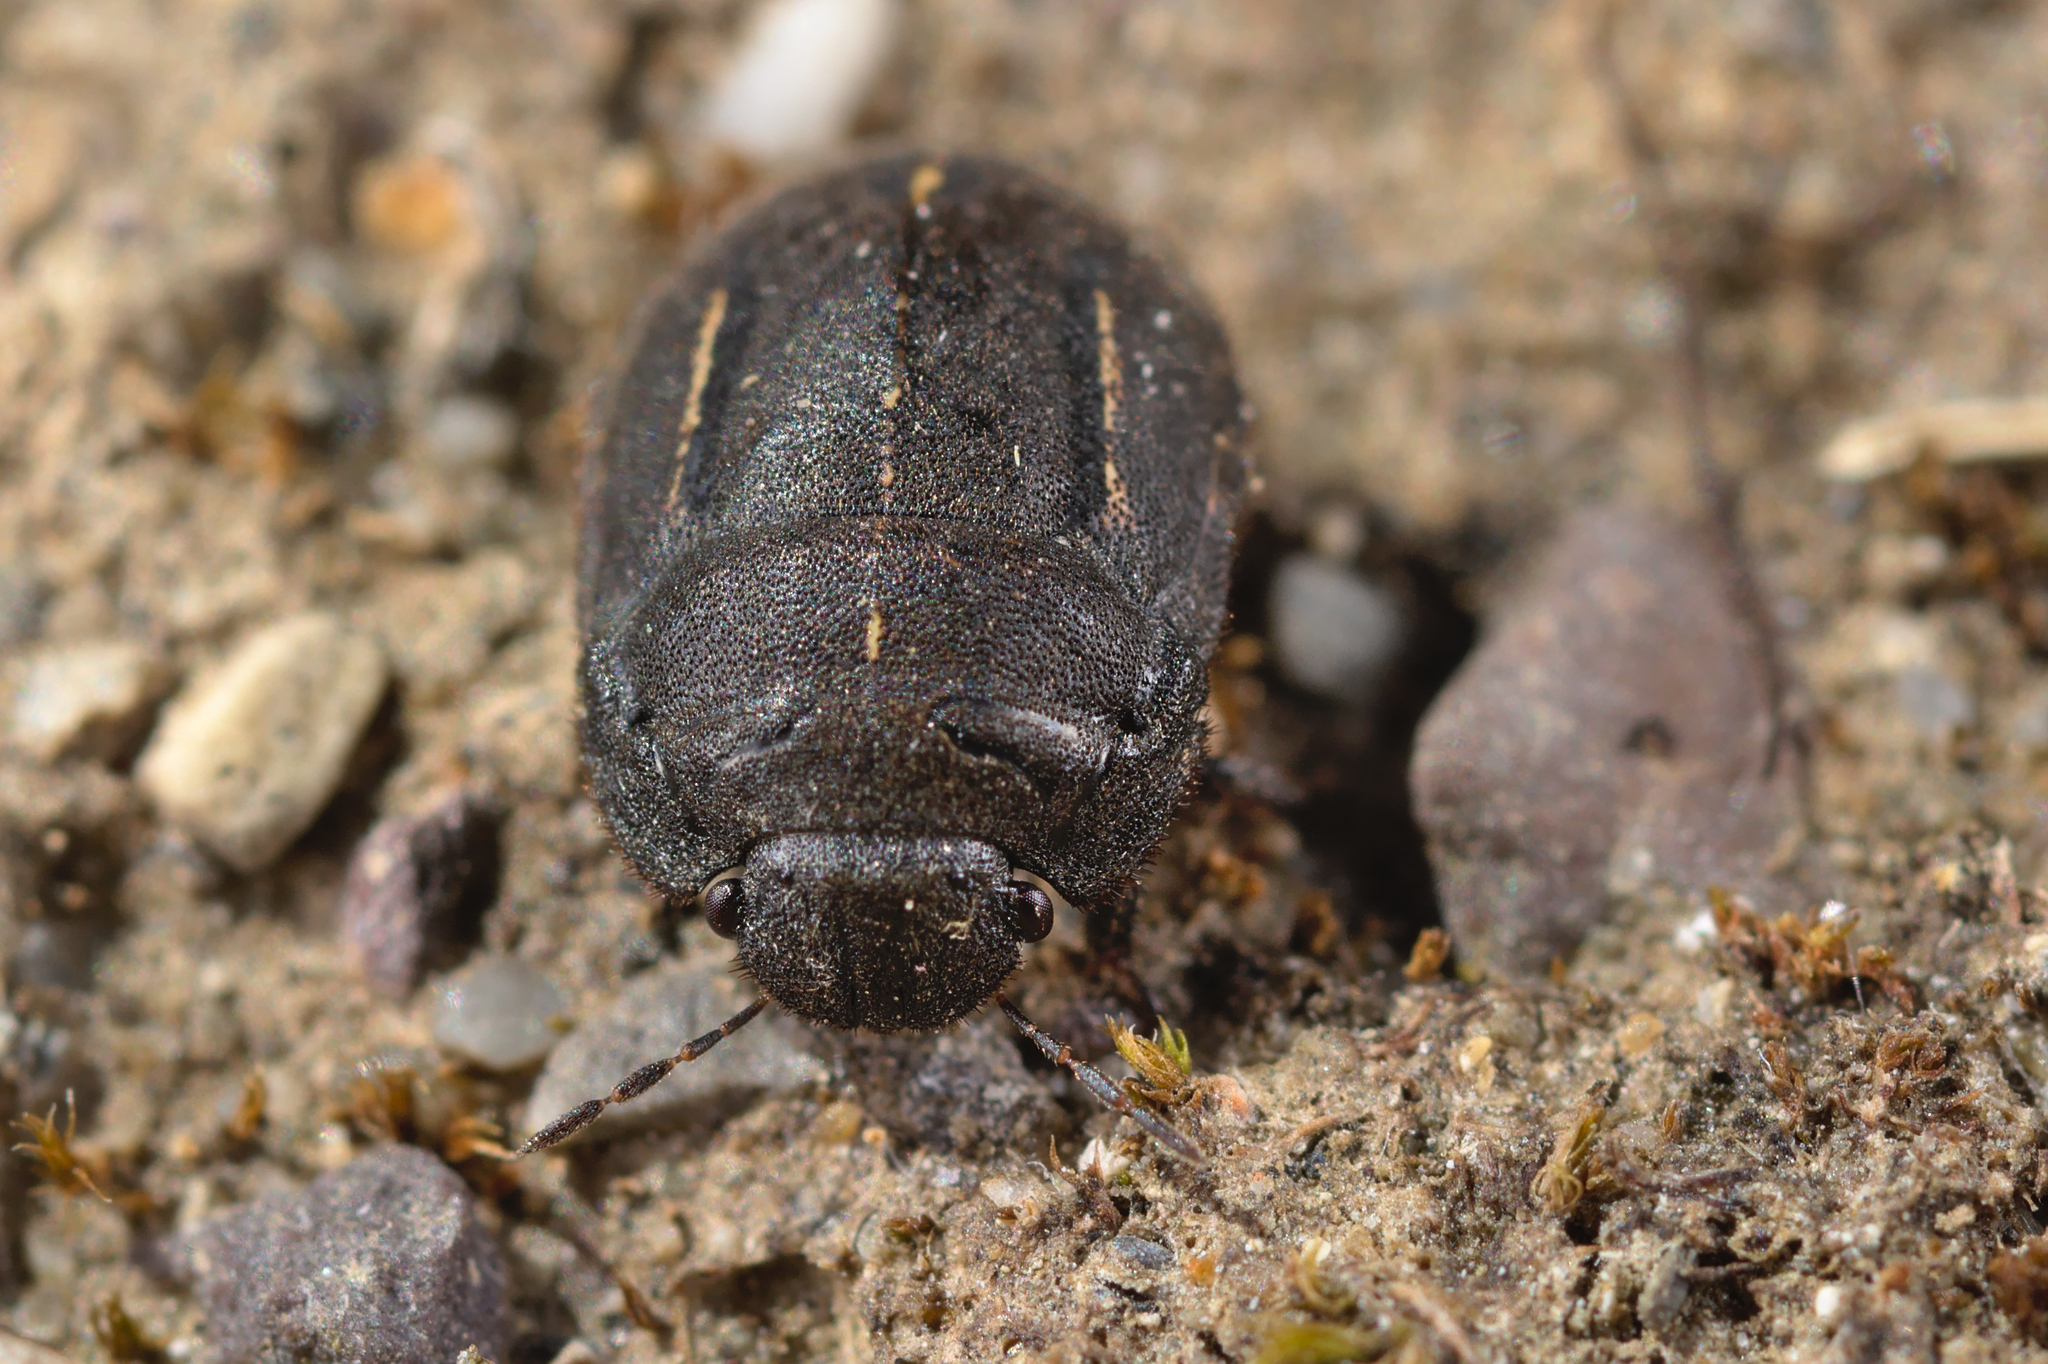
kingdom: Animalia
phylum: Arthropoda
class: Insecta
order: Hemiptera
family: Scutelleridae
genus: Odontoscelis
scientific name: Odontoscelis fuliginosa
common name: Greater streaked shieldbug
